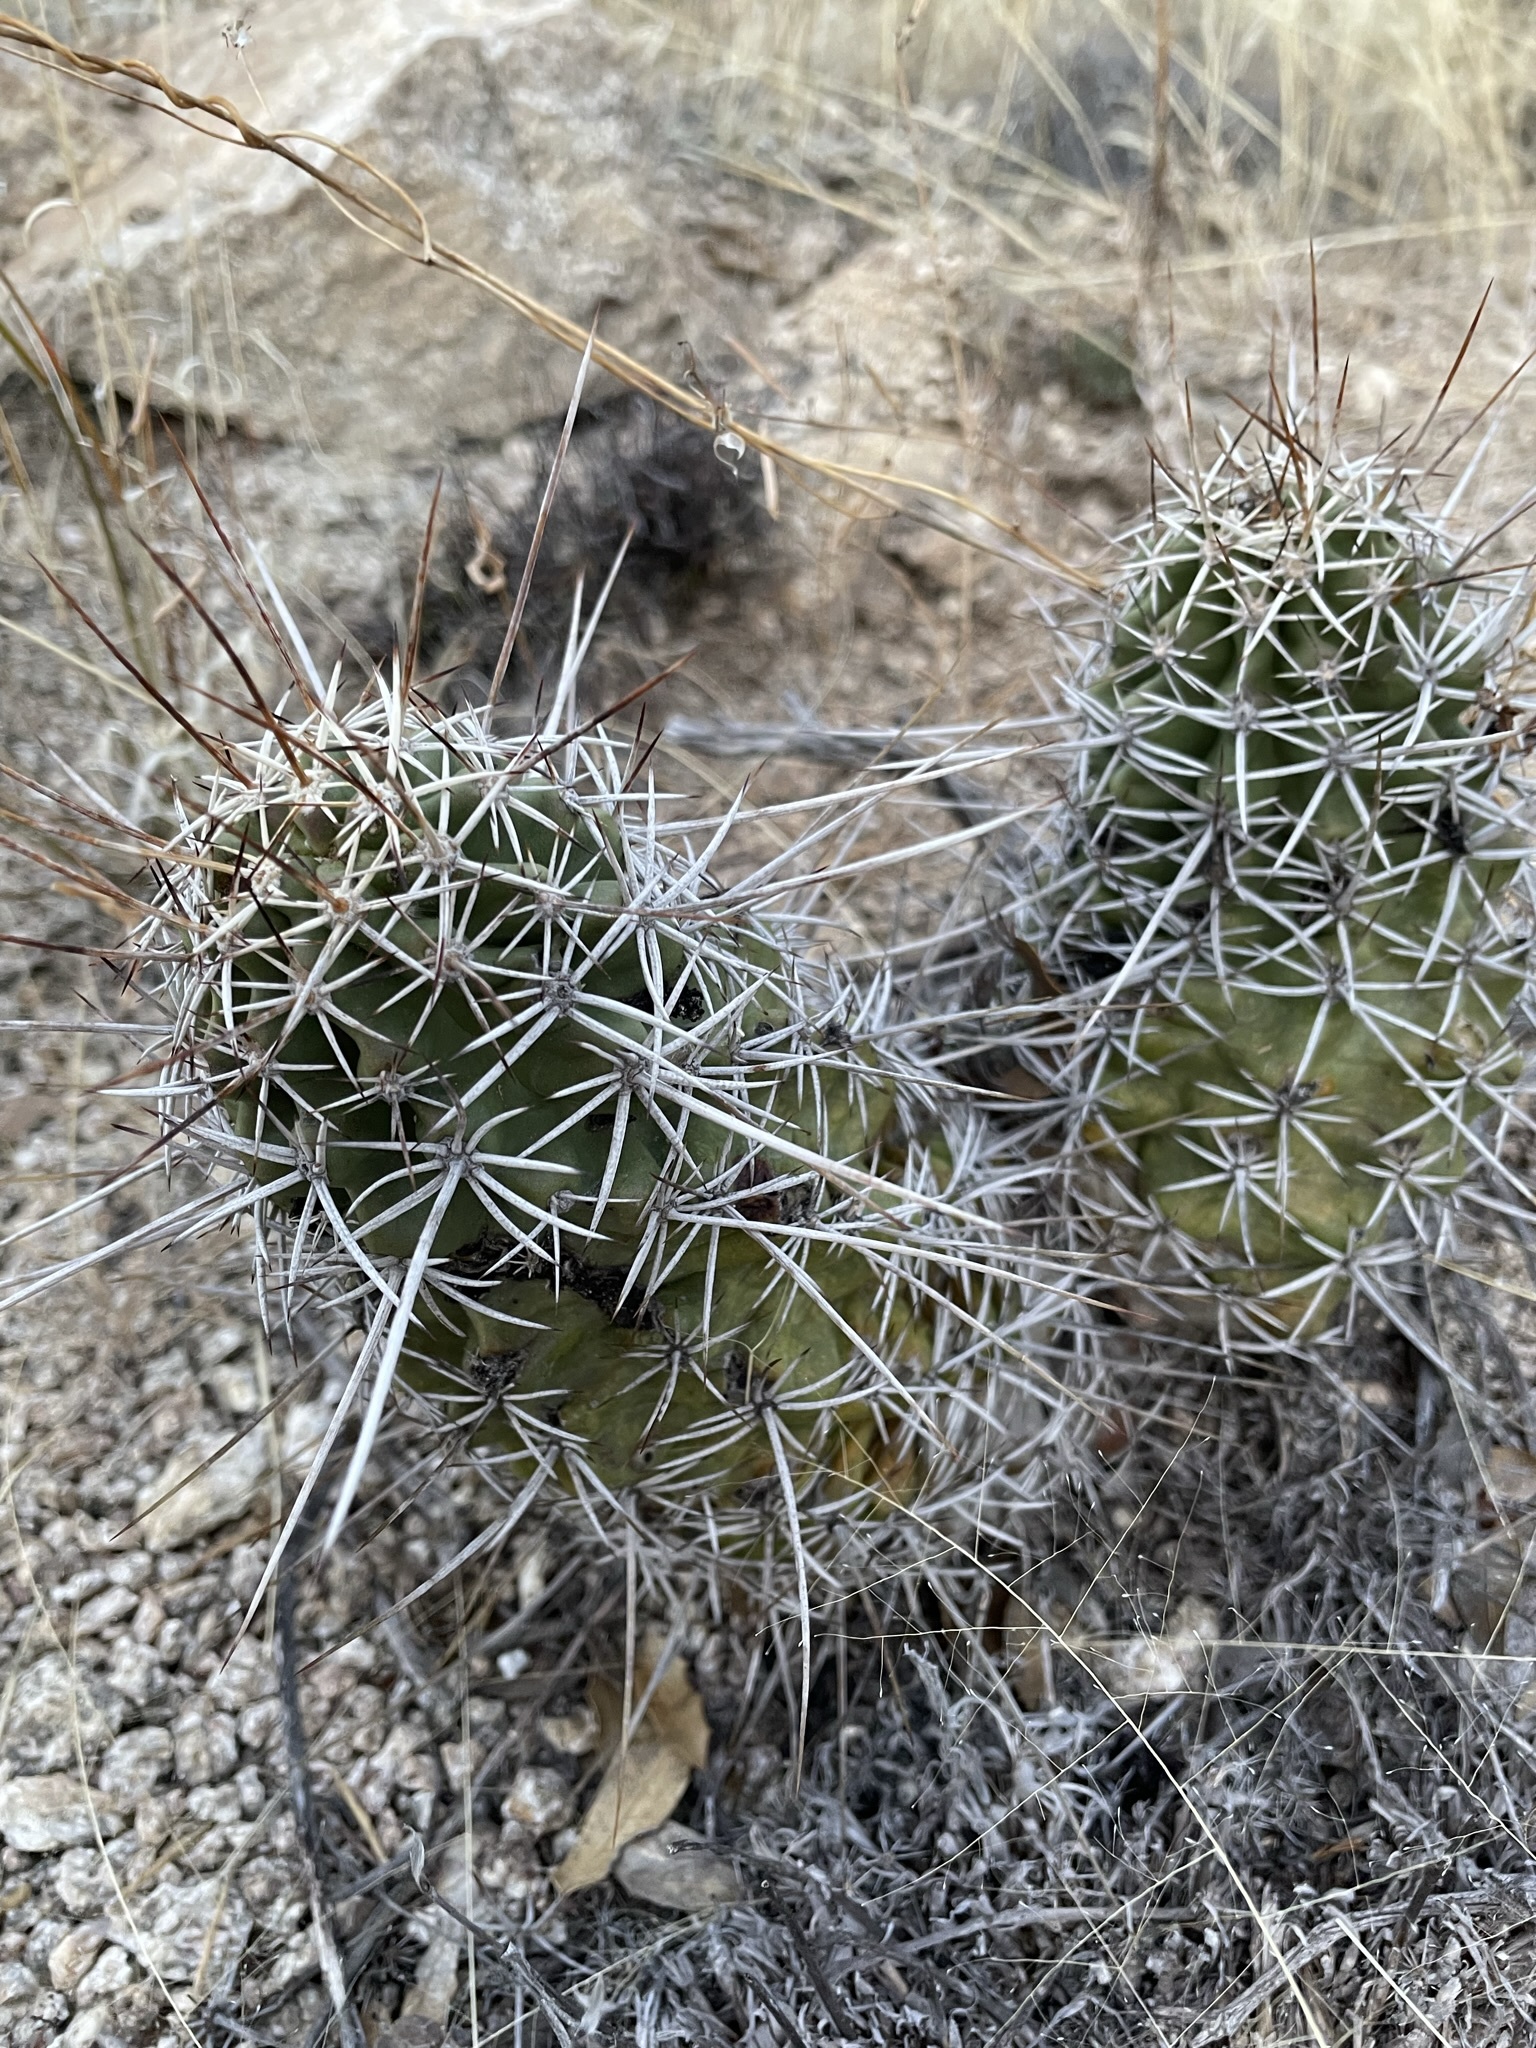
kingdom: Plantae
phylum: Tracheophyta
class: Magnoliopsida
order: Caryophyllales
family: Cactaceae
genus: Echinocereus
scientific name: Echinocereus fasciculatus
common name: Bundle hedgehog
